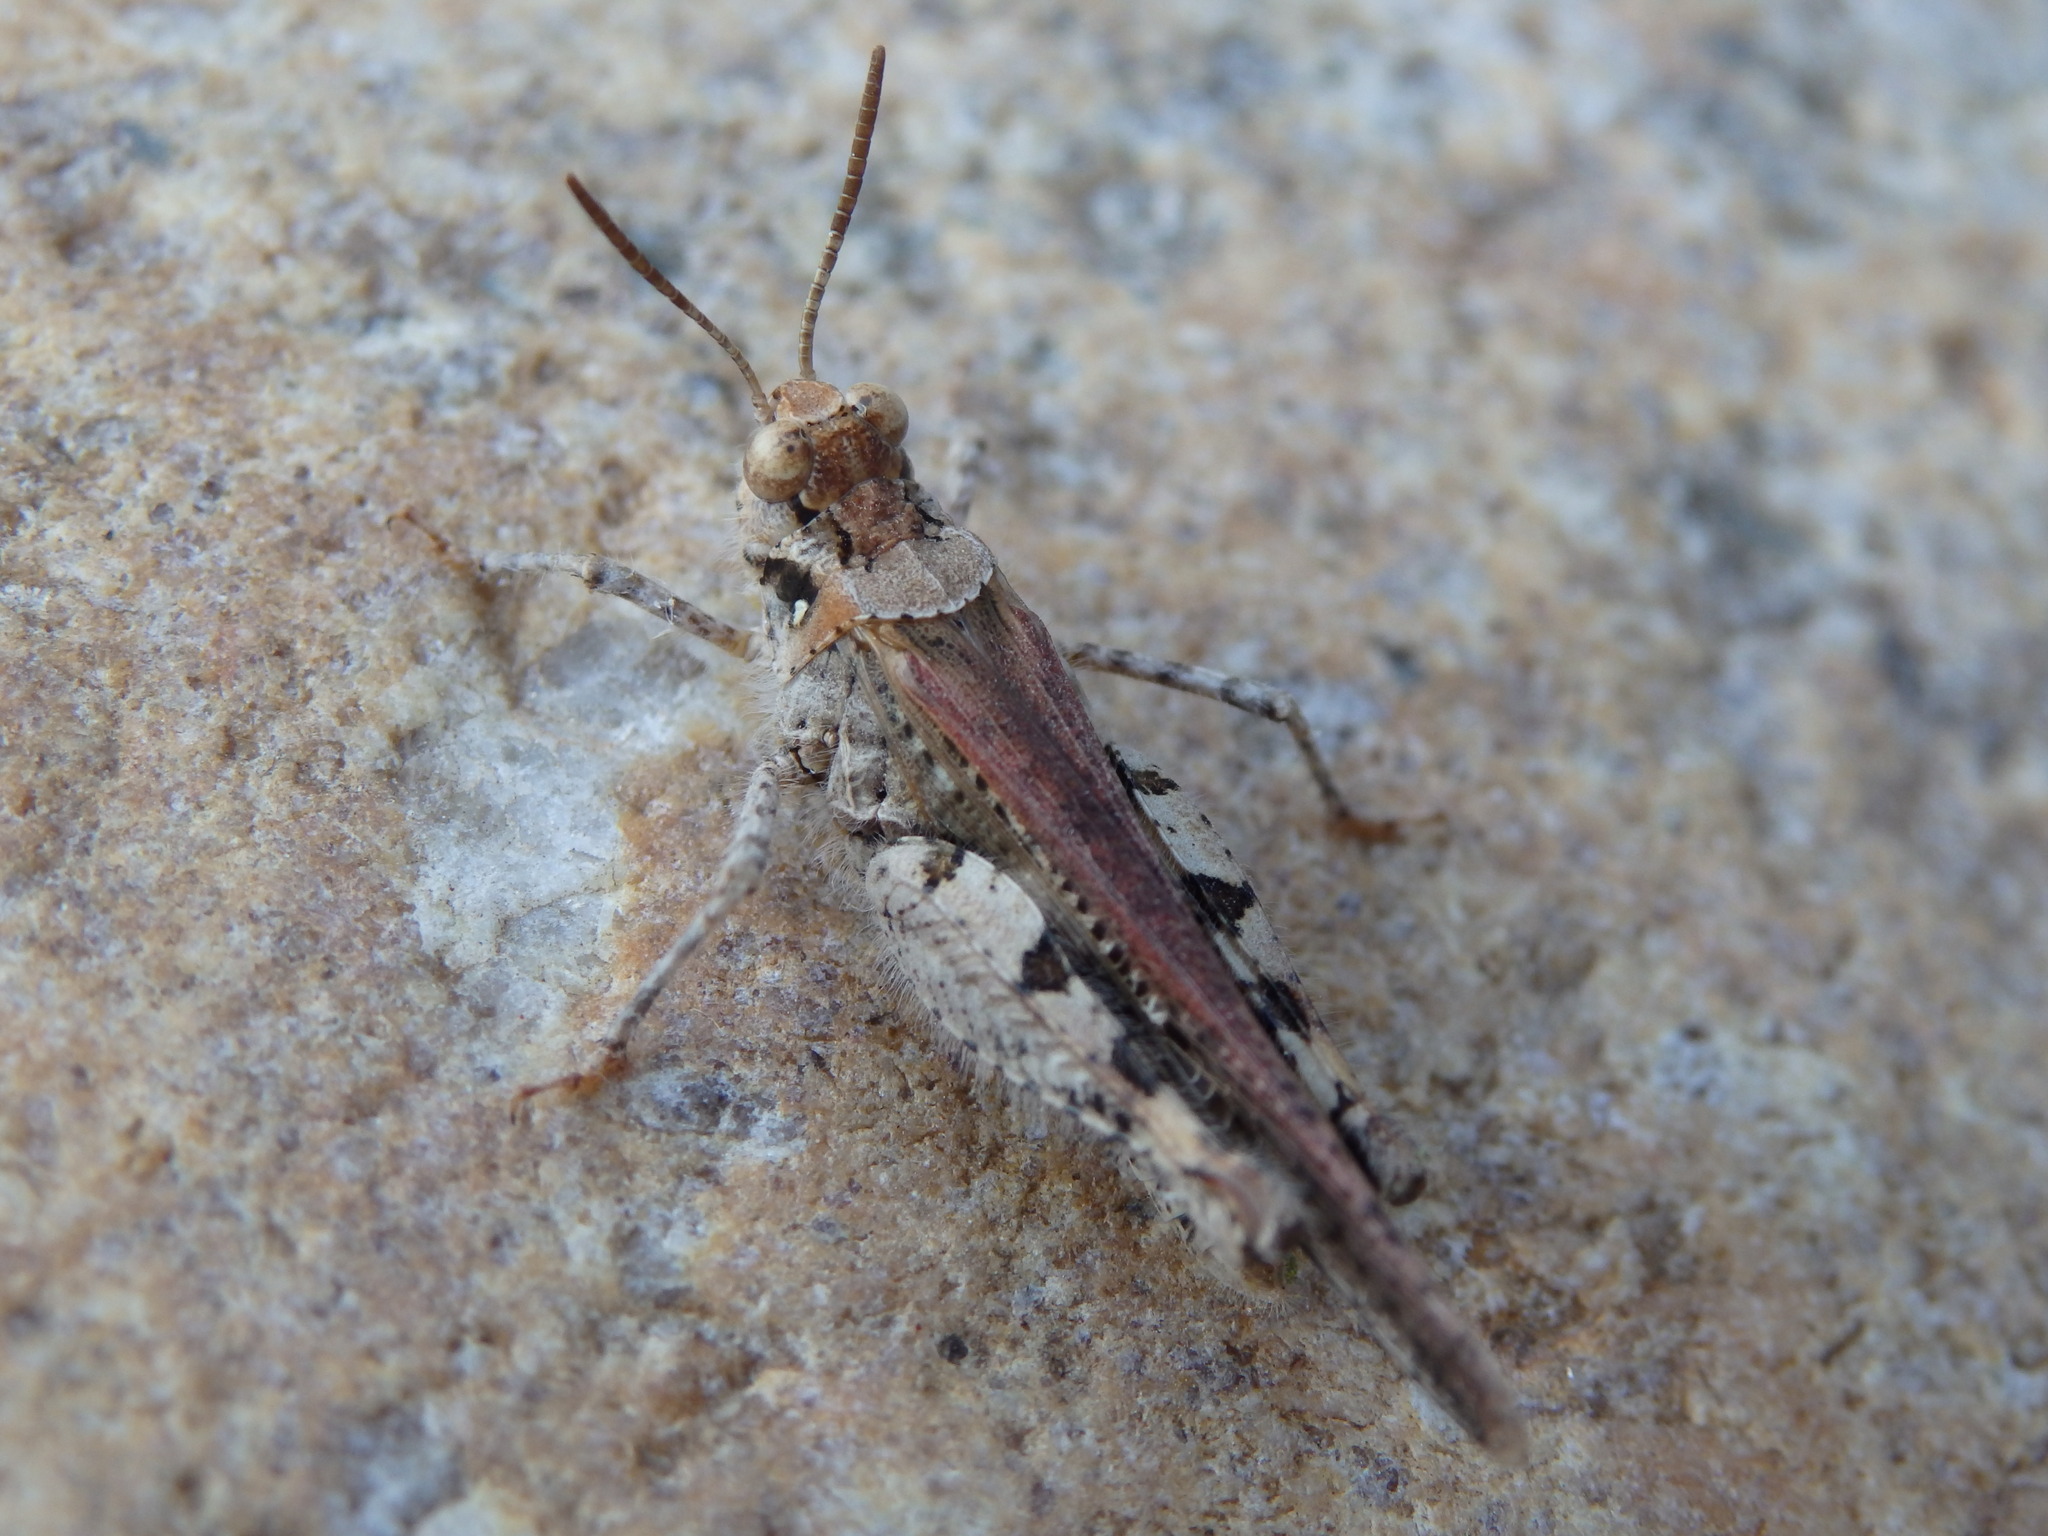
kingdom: Animalia
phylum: Arthropoda
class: Insecta
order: Orthoptera
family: Acrididae
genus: Acrotylus
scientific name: Acrotylus insubricus
